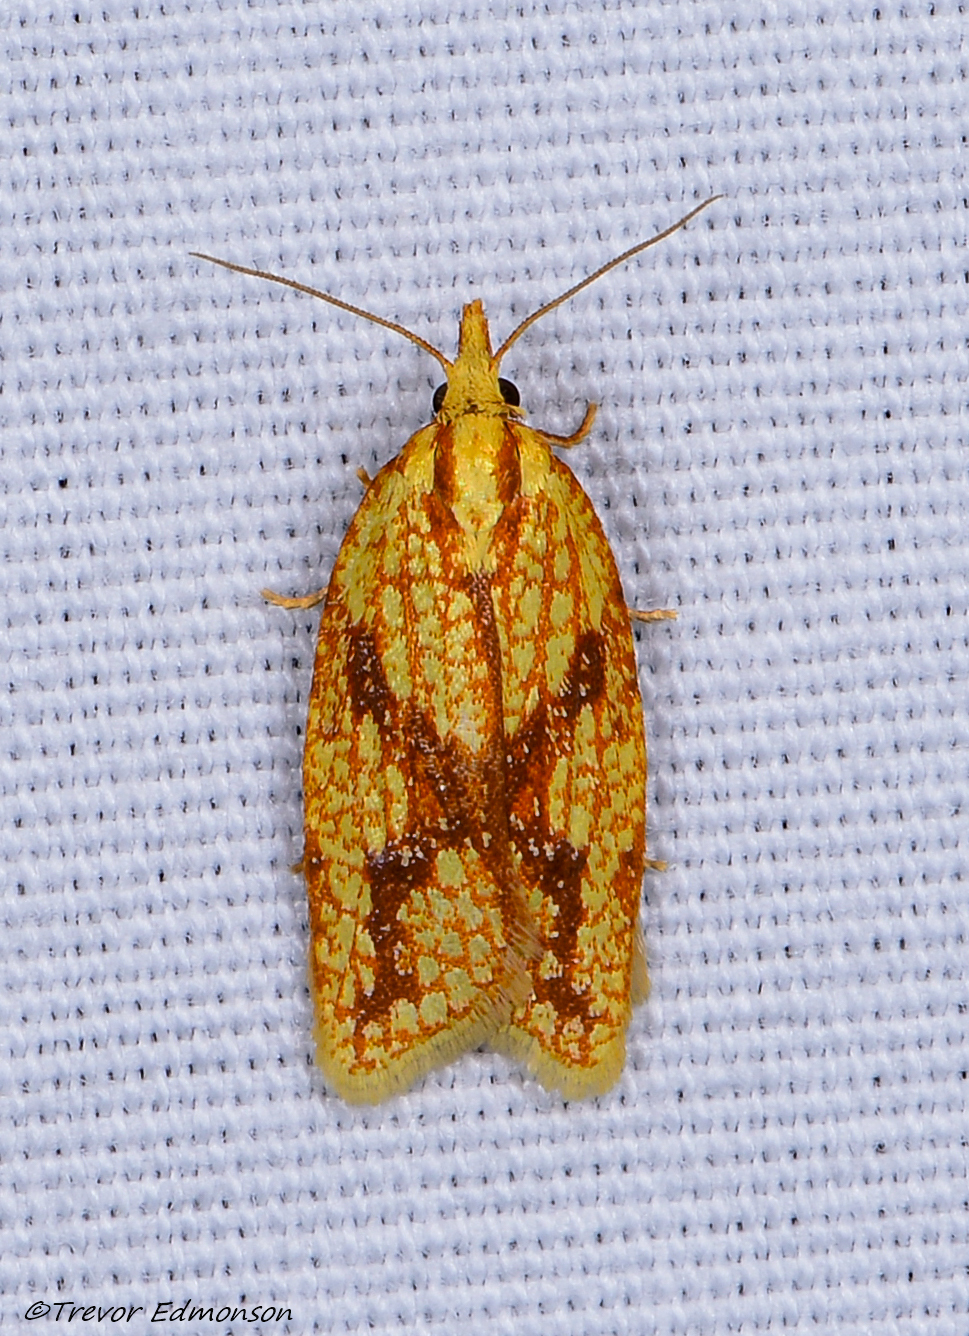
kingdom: Animalia
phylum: Arthropoda
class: Insecta
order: Lepidoptera
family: Tortricidae
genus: Sparganothis
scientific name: Sparganothis sulfureana
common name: Sparganothis fruitworm moth
